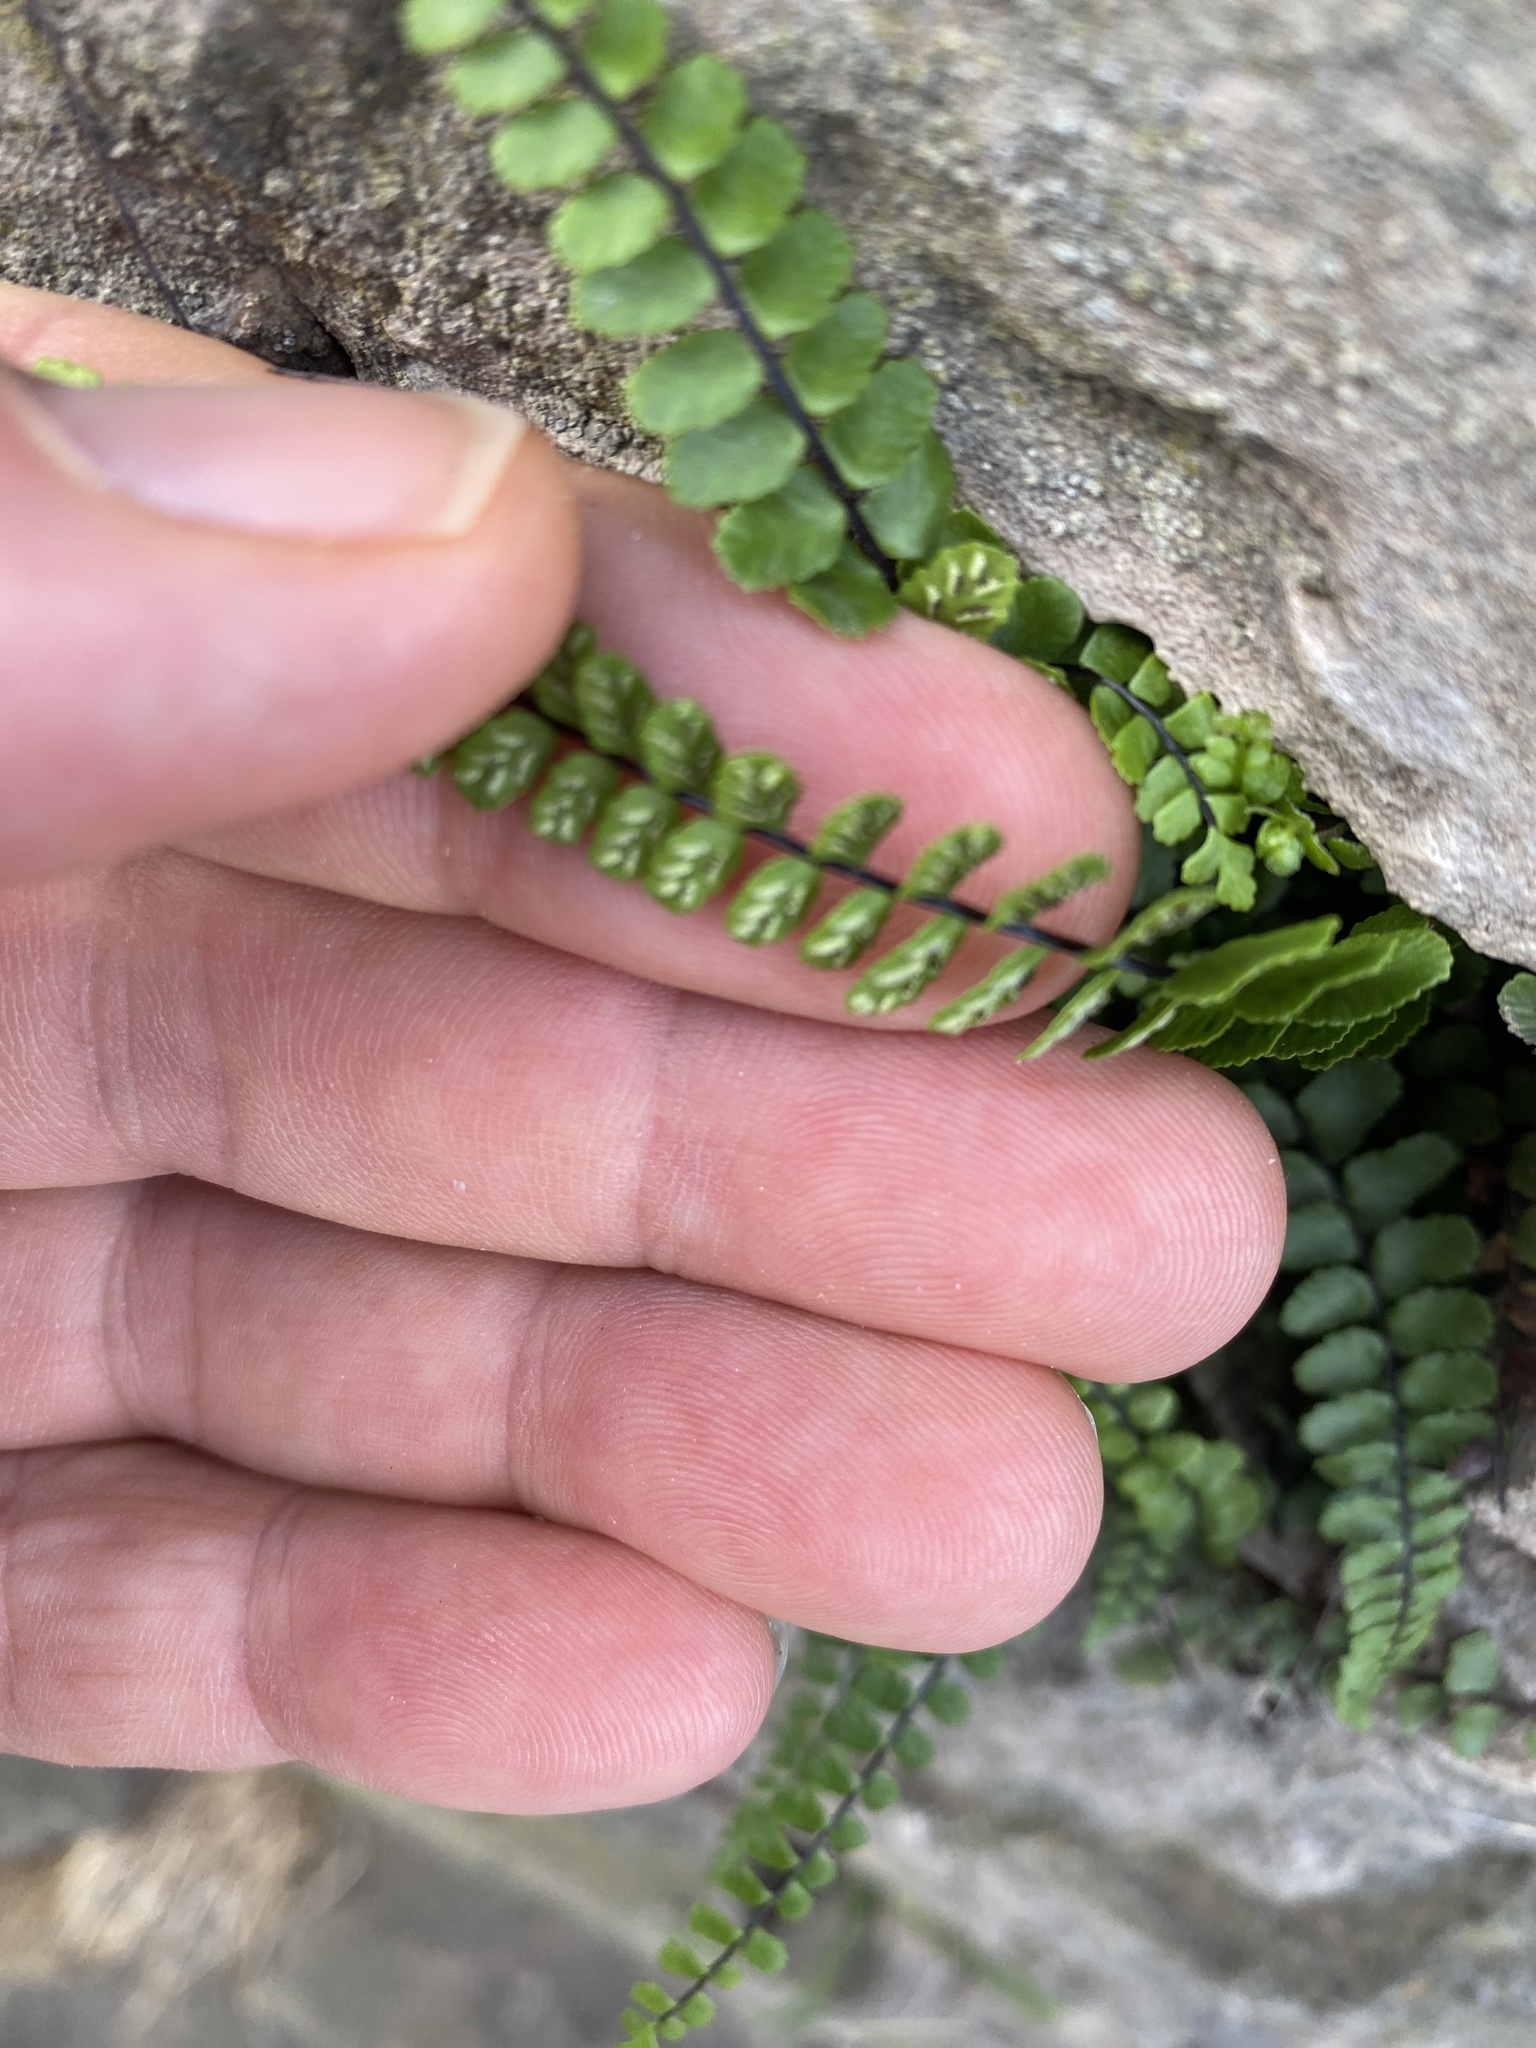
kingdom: Plantae
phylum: Tracheophyta
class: Polypodiopsida
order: Polypodiales
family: Aspleniaceae
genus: Asplenium
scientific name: Asplenium trichomanes
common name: Maidenhair spleenwort
